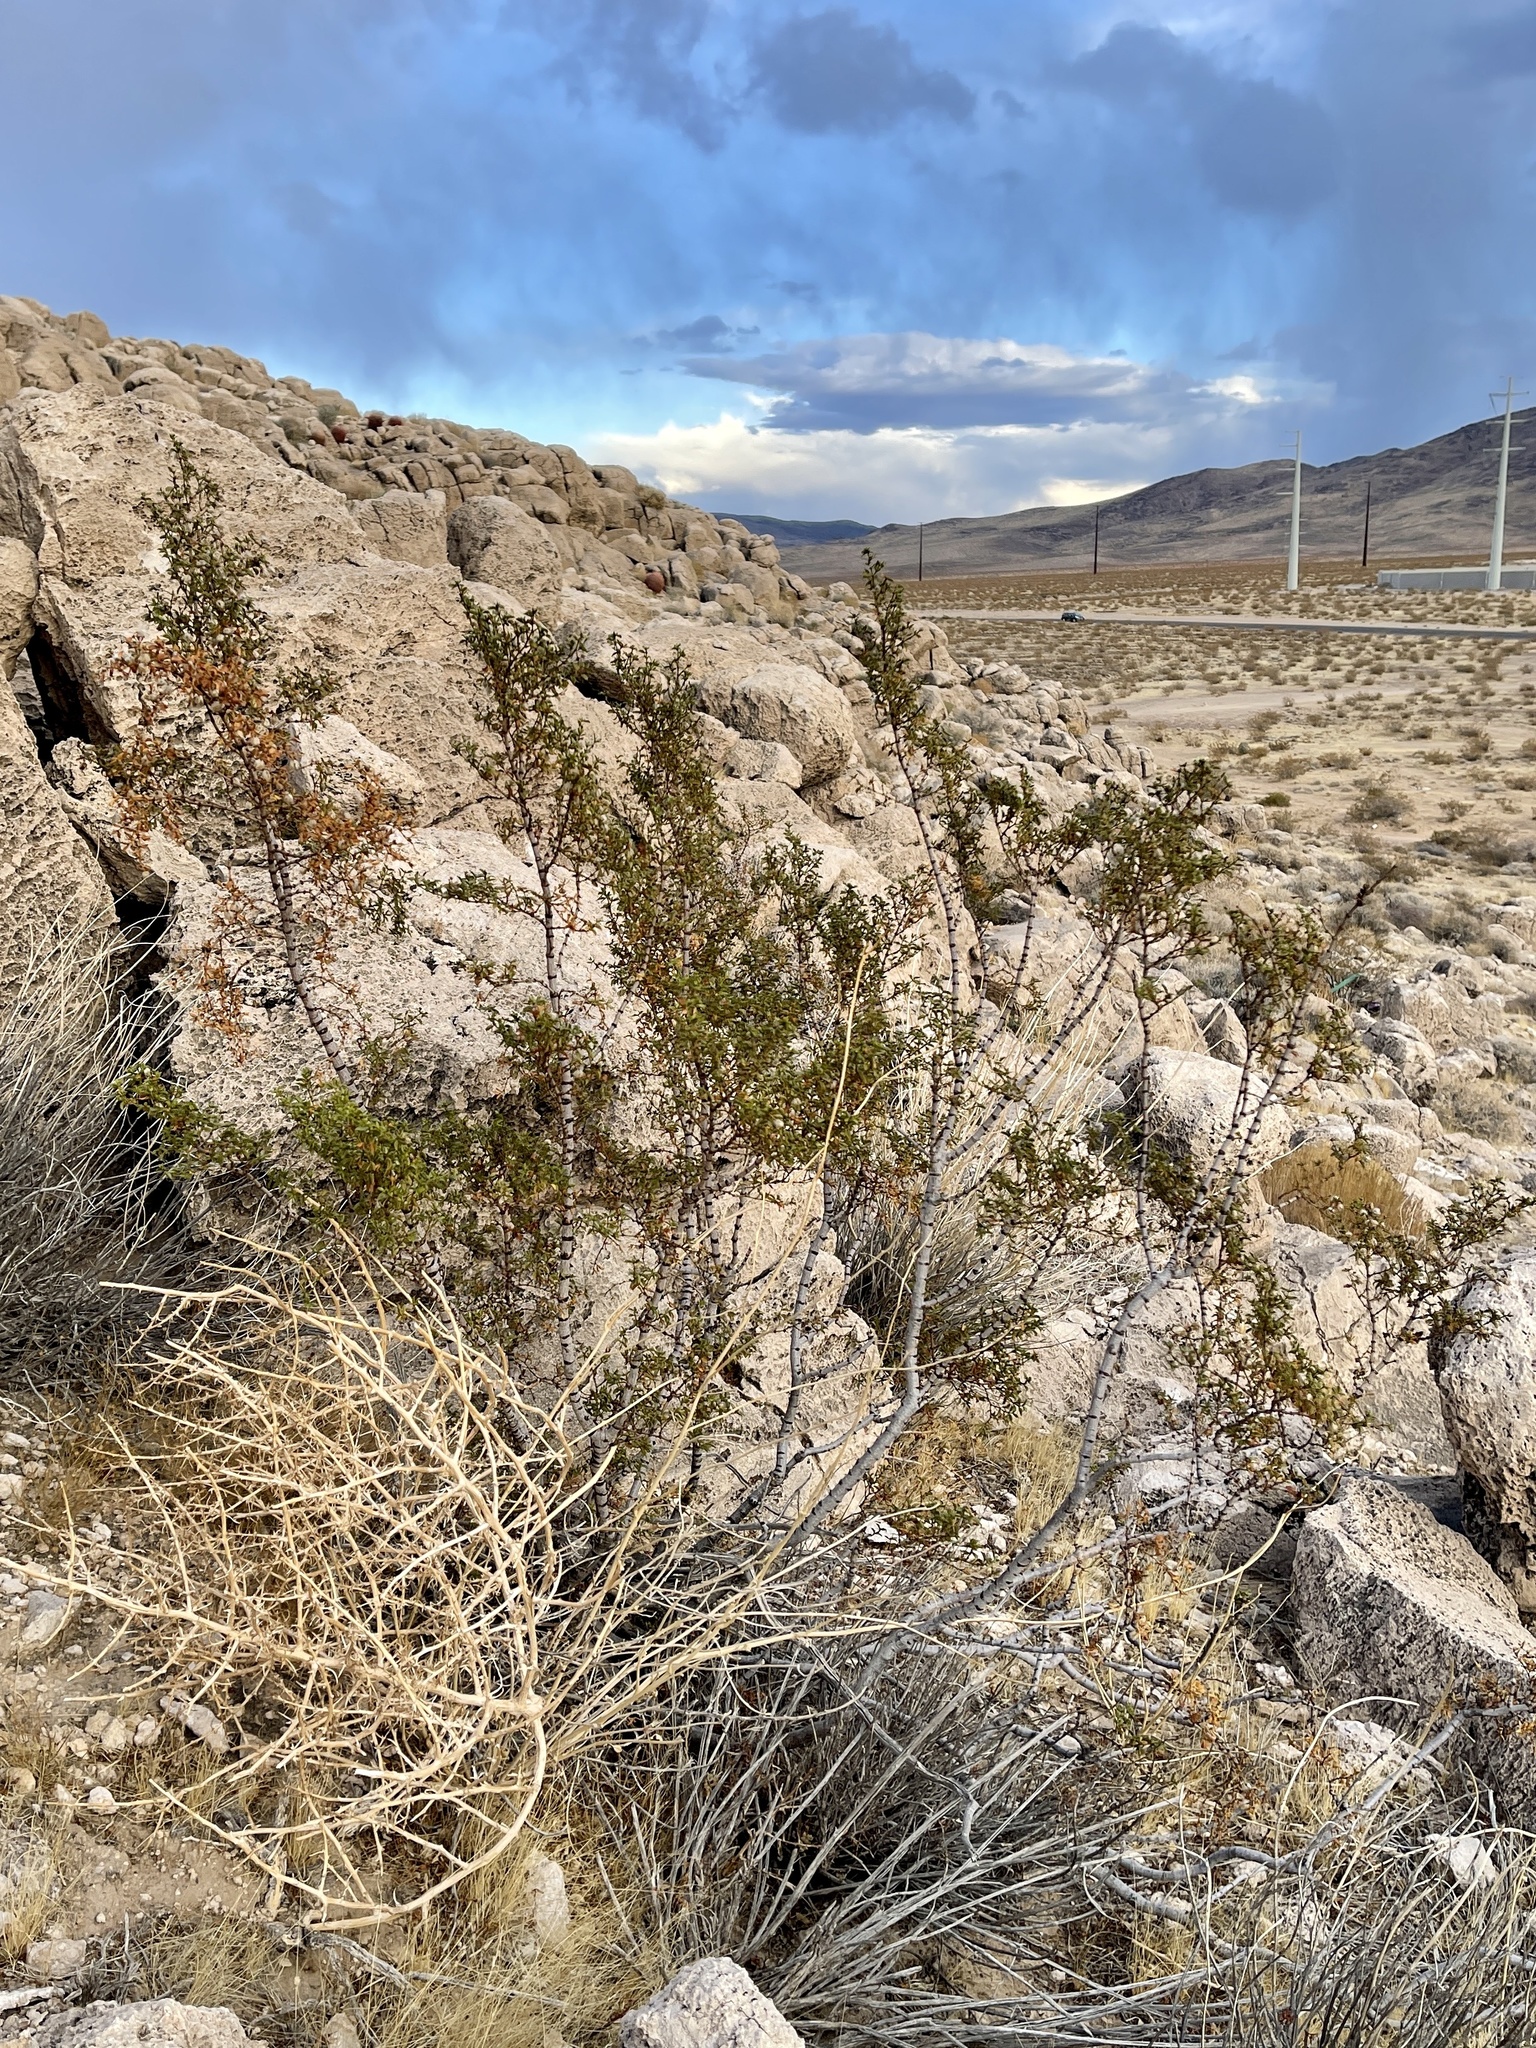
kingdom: Plantae
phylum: Tracheophyta
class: Magnoliopsida
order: Zygophyllales
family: Zygophyllaceae
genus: Larrea
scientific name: Larrea tridentata
